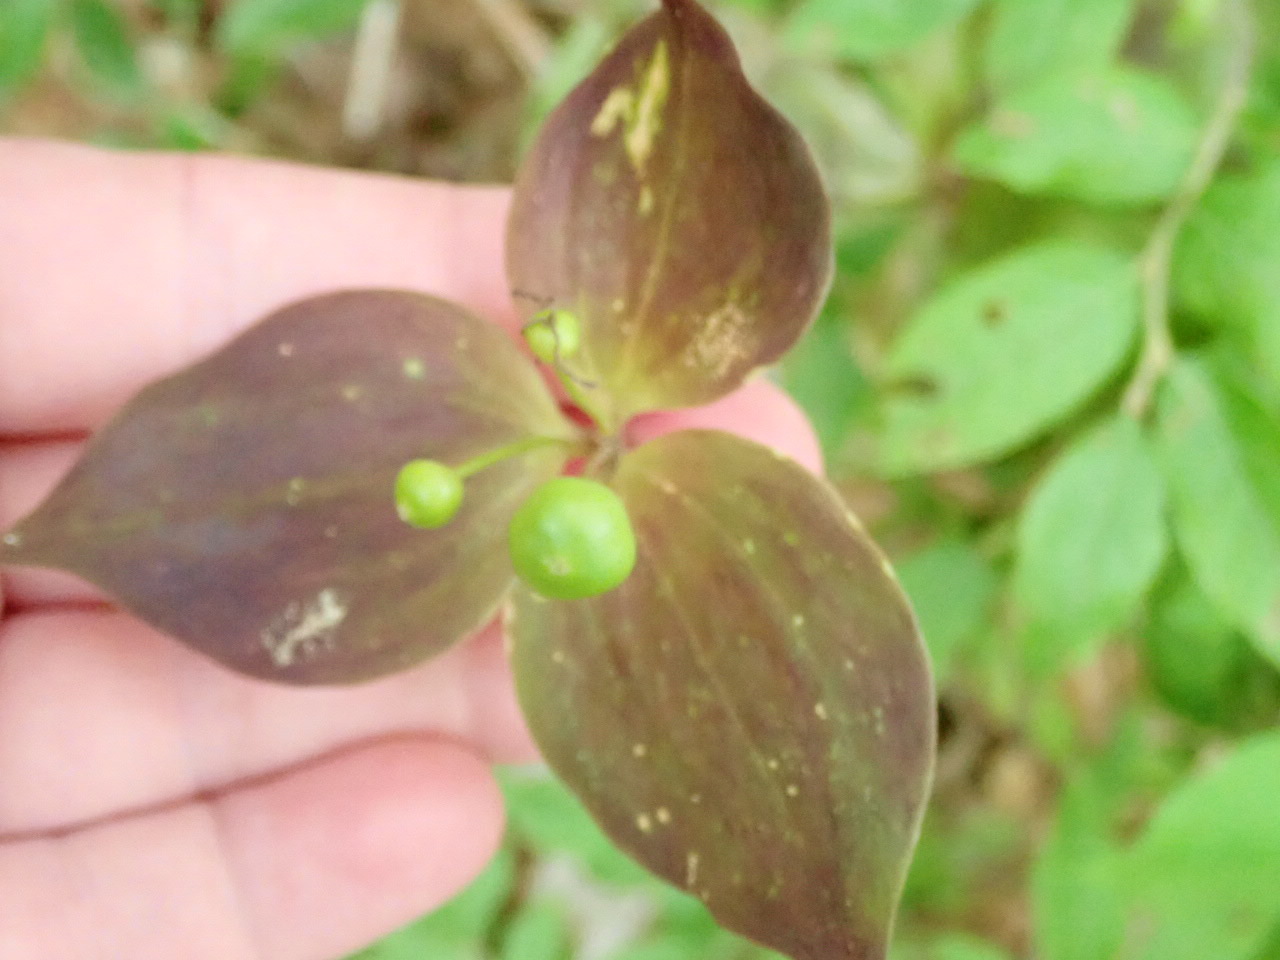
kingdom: Plantae
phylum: Tracheophyta
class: Liliopsida
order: Liliales
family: Liliaceae
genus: Medeola
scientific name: Medeola virginiana
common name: Indian cucumber-root
